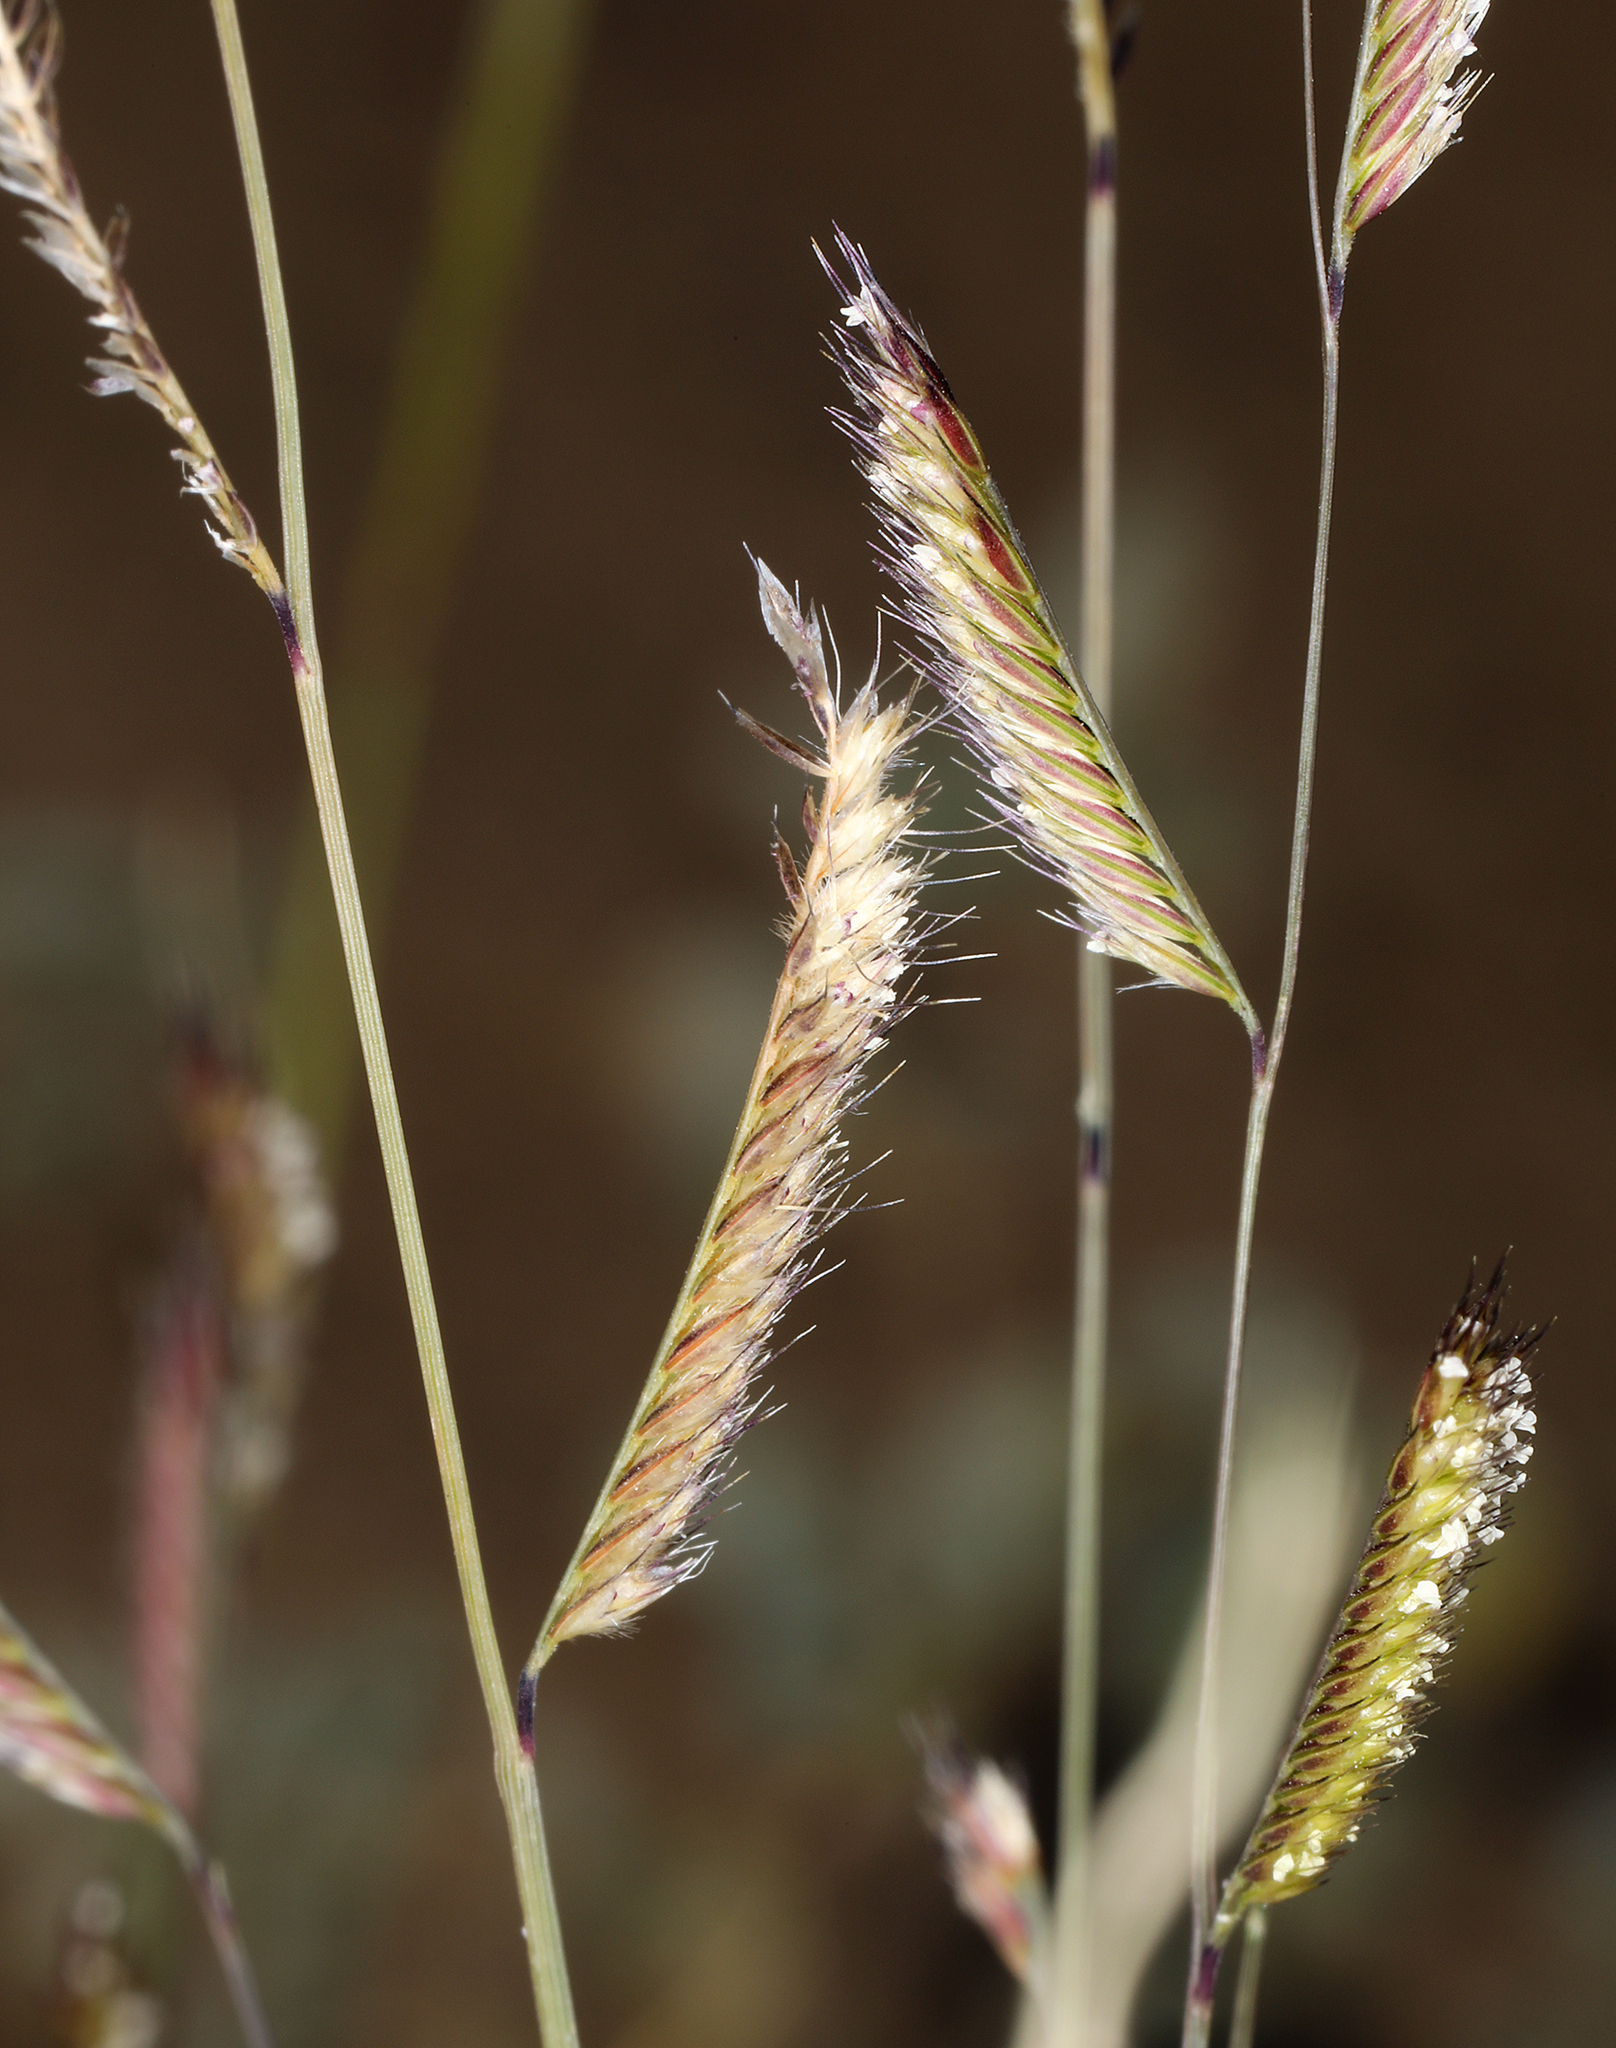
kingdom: Plantae
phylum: Tracheophyta
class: Liliopsida
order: Poales
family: Poaceae
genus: Bouteloua
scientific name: Bouteloua barbata
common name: Six-weeks grama
